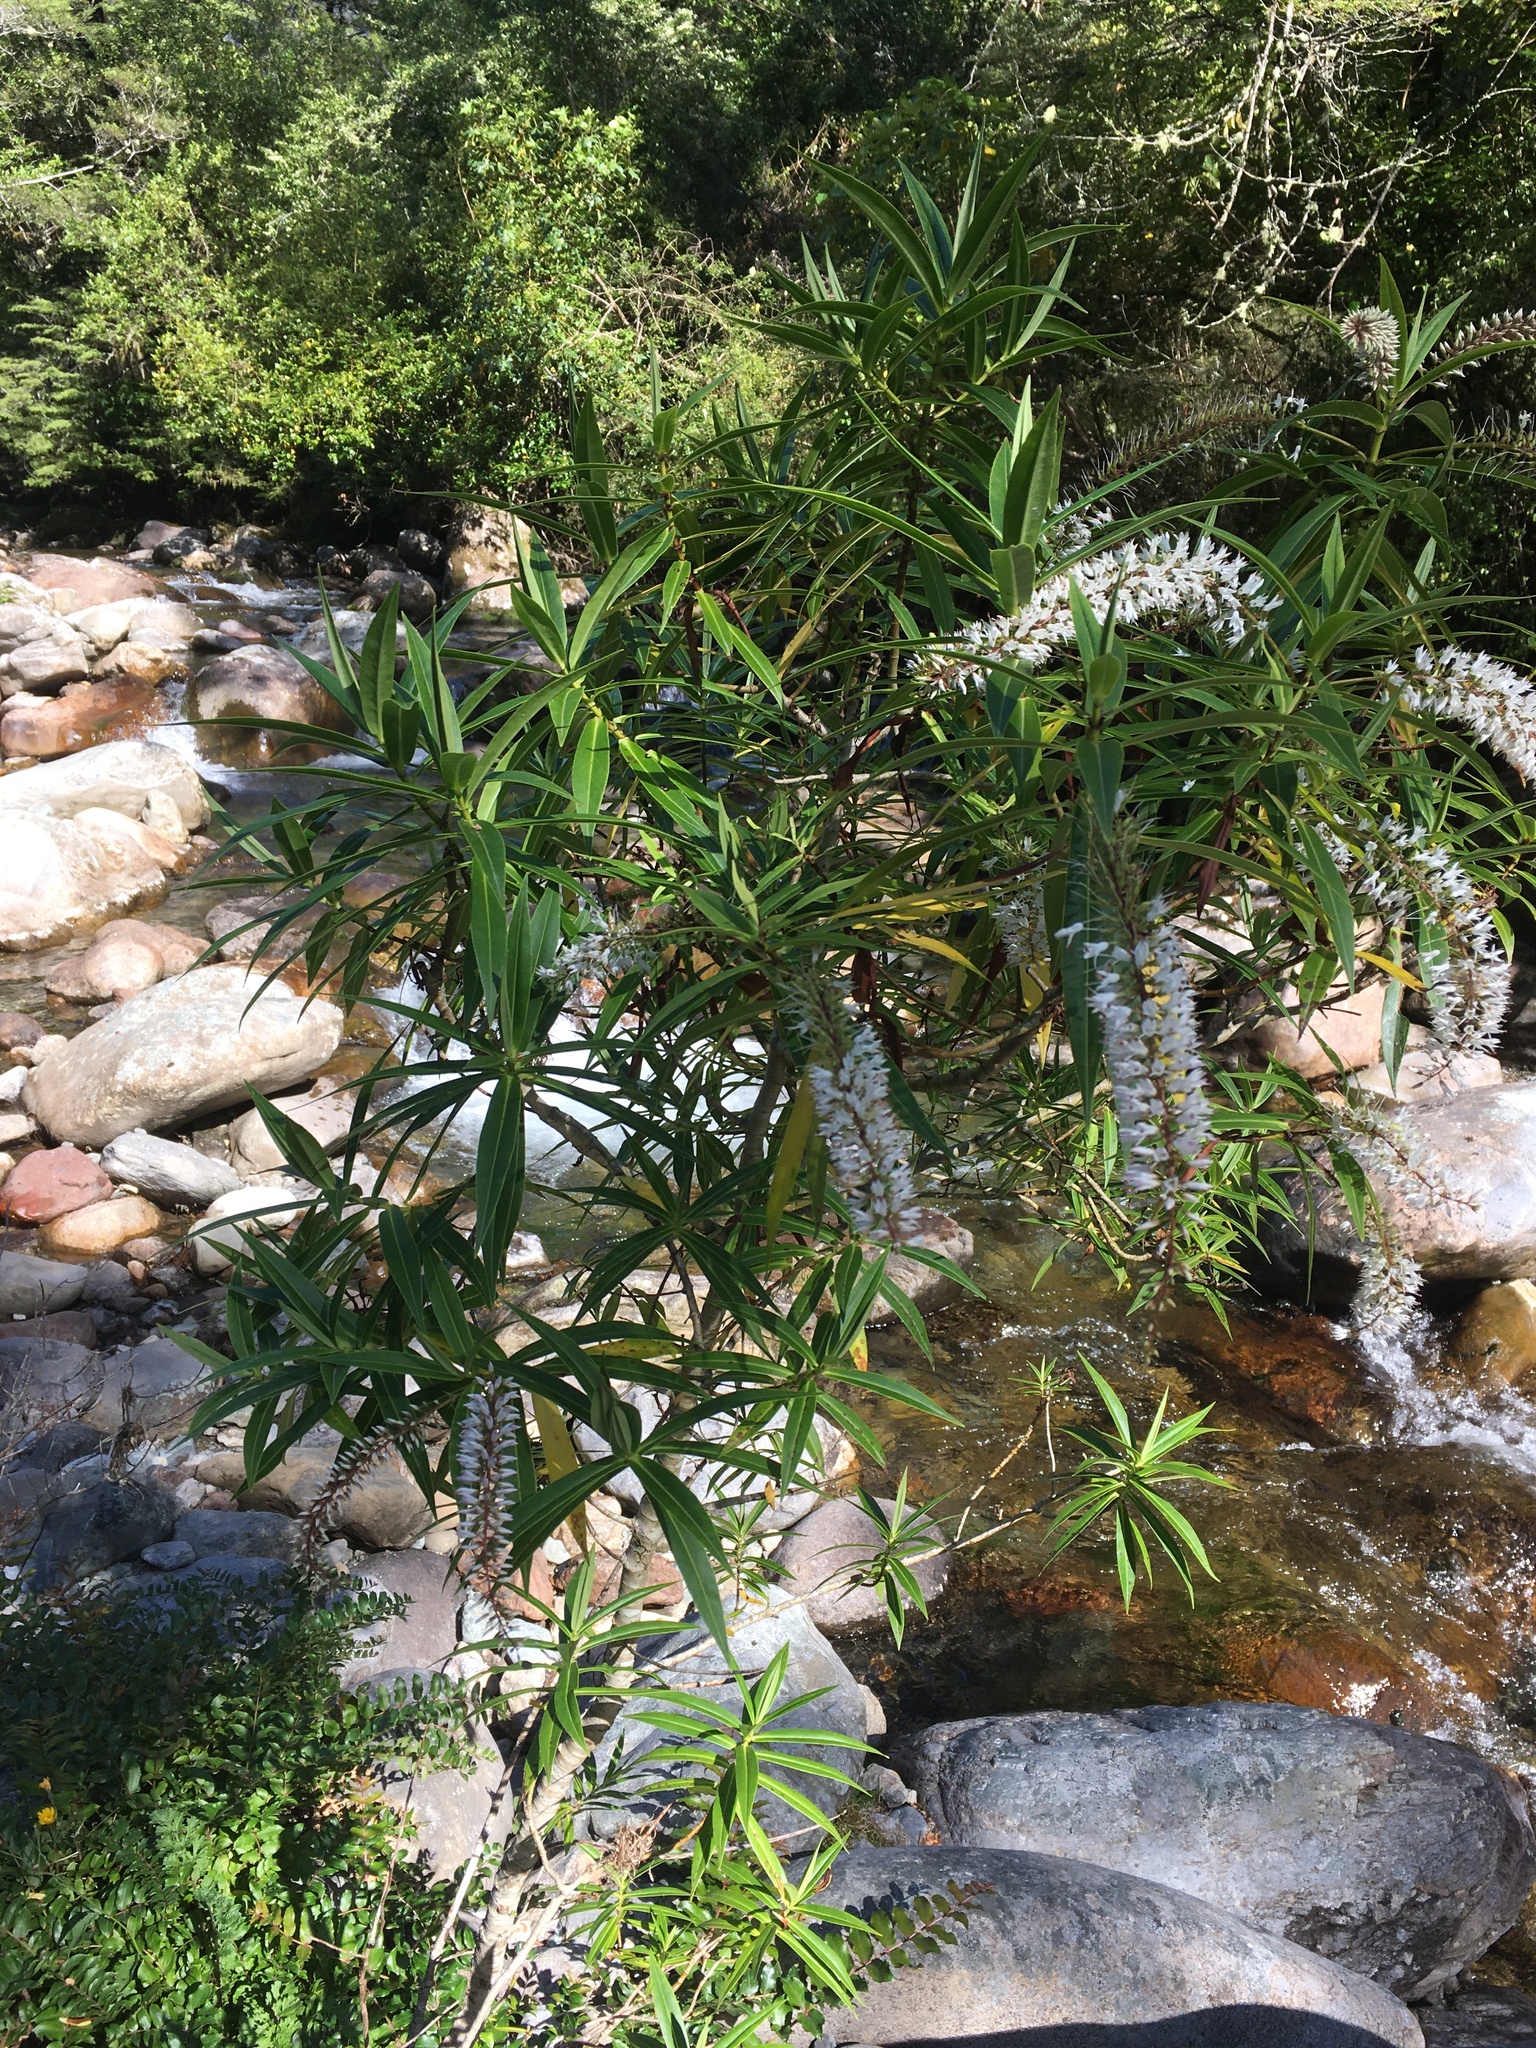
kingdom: Plantae
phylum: Tracheophyta
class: Magnoliopsida
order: Lamiales
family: Plantaginaceae
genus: Veronica
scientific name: Veronica salicifolia
